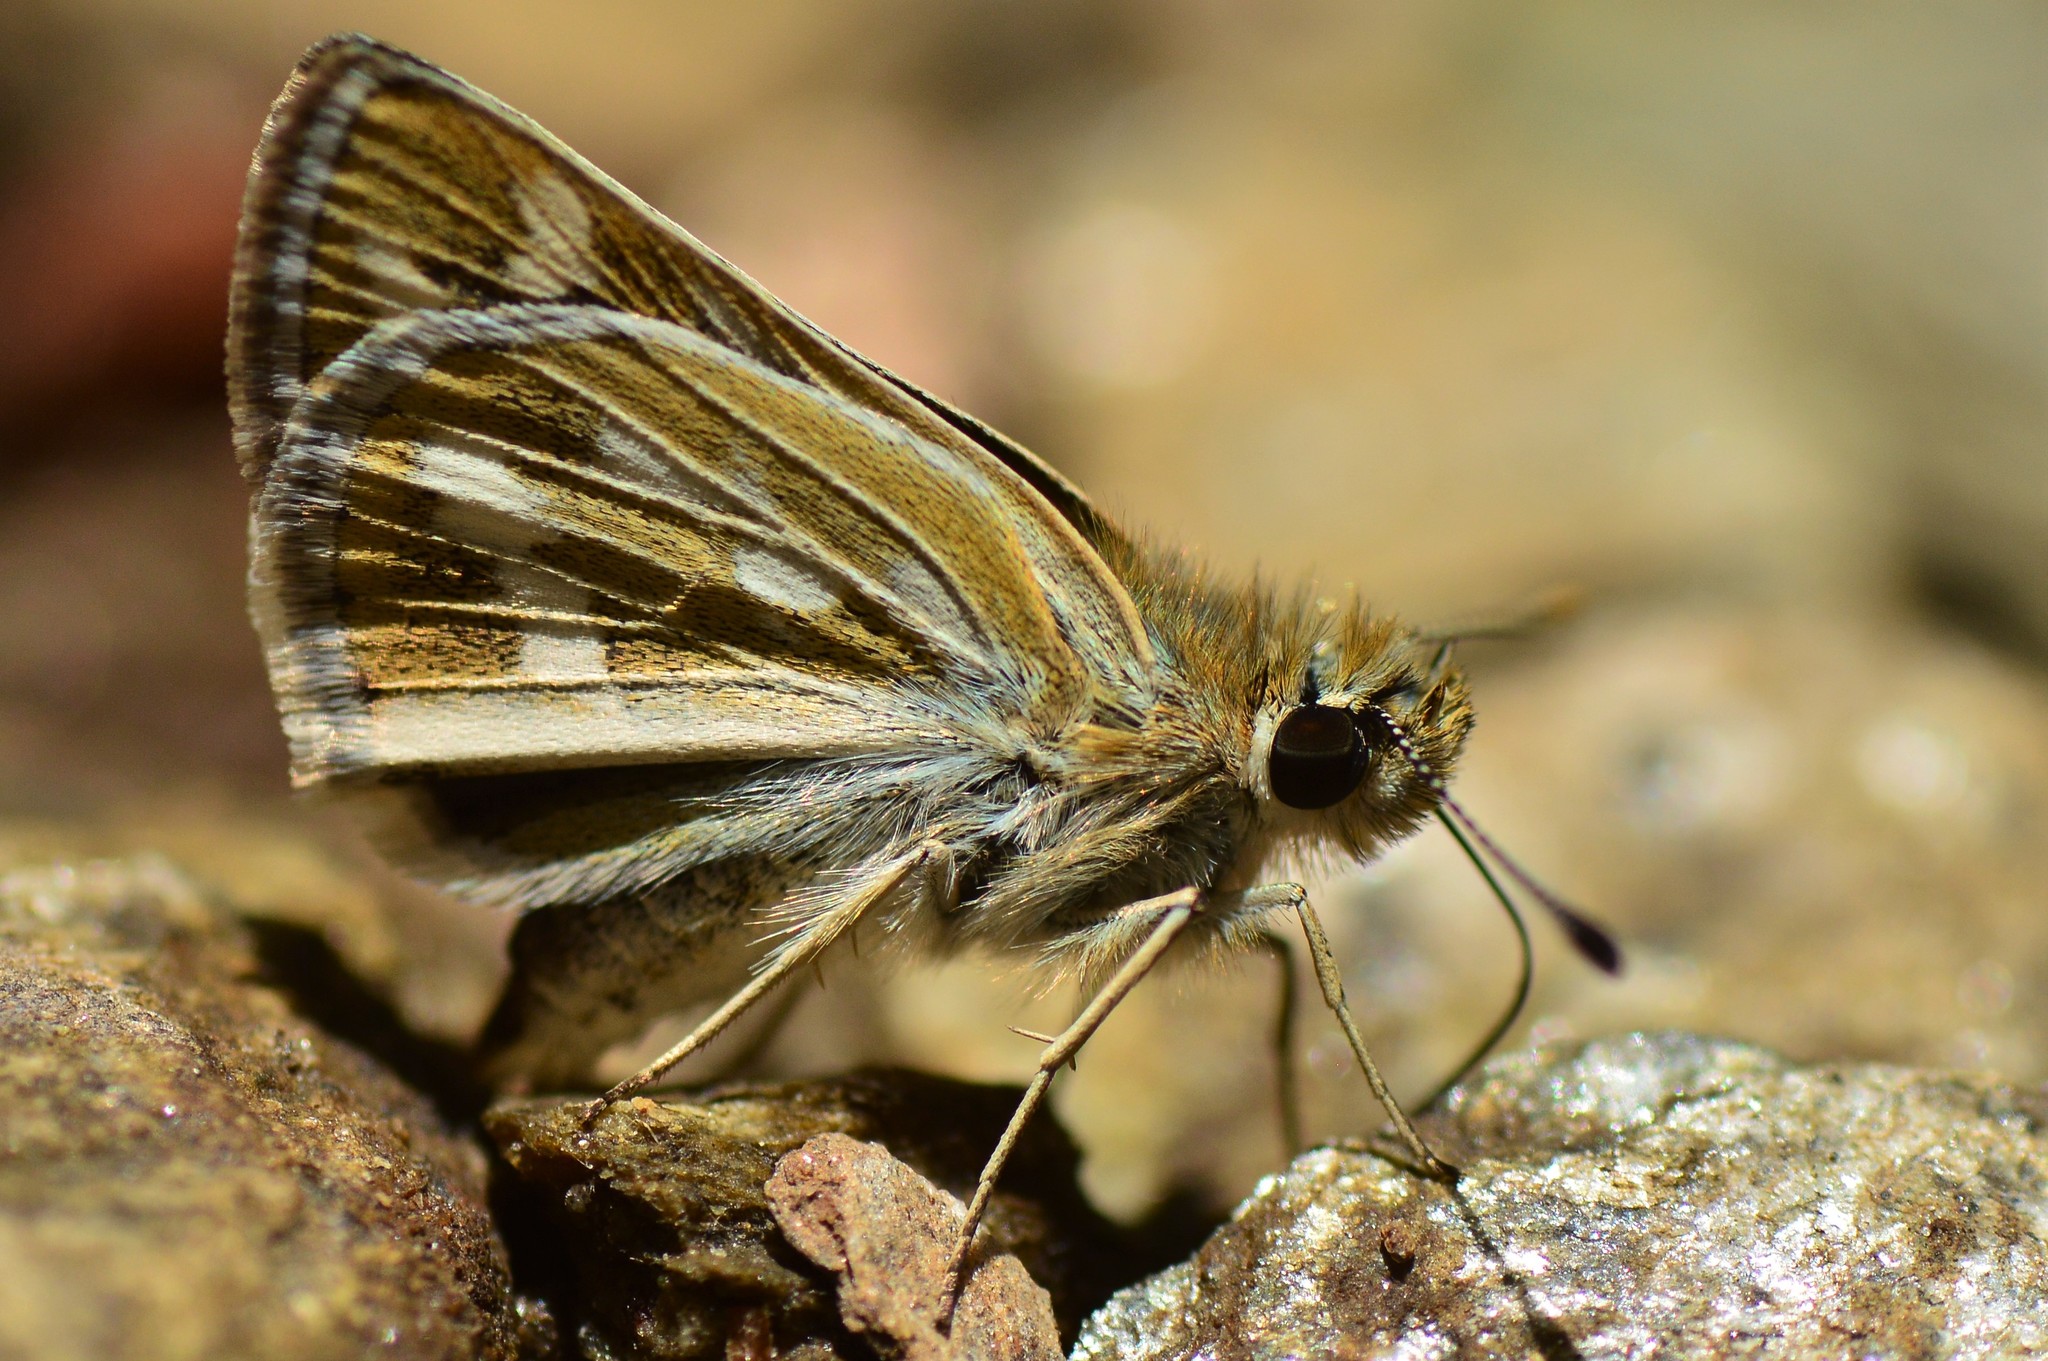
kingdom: Animalia
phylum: Arthropoda
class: Insecta
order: Lepidoptera
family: Hesperiidae
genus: Taractrocera
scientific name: Taractrocera danna
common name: Himalayan grass dart
